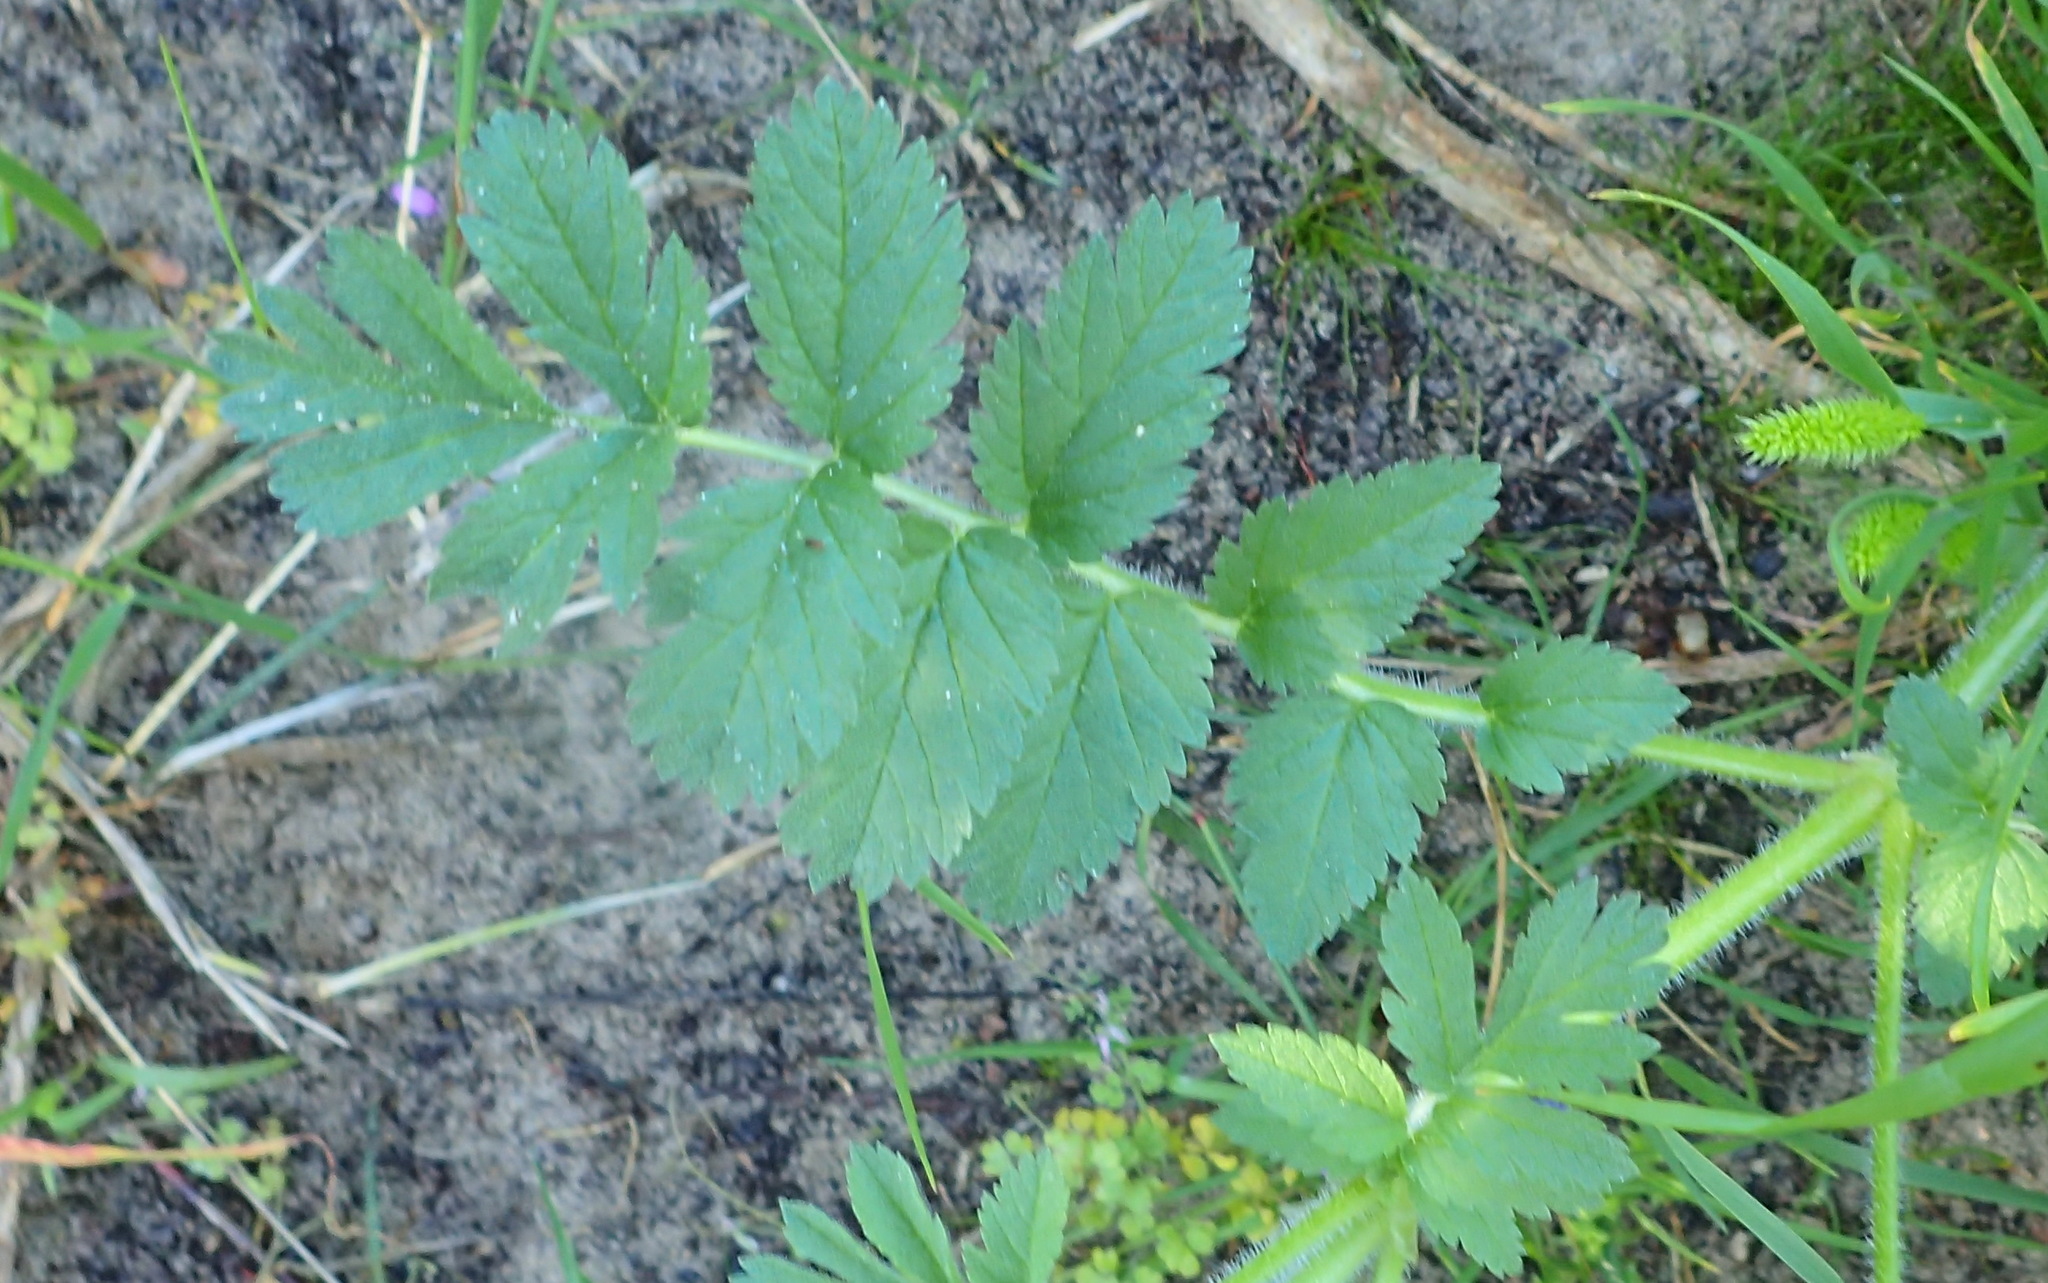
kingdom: Plantae
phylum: Tracheophyta
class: Magnoliopsida
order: Geraniales
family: Geraniaceae
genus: Erodium
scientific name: Erodium moschatum
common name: Musk stork's-bill
